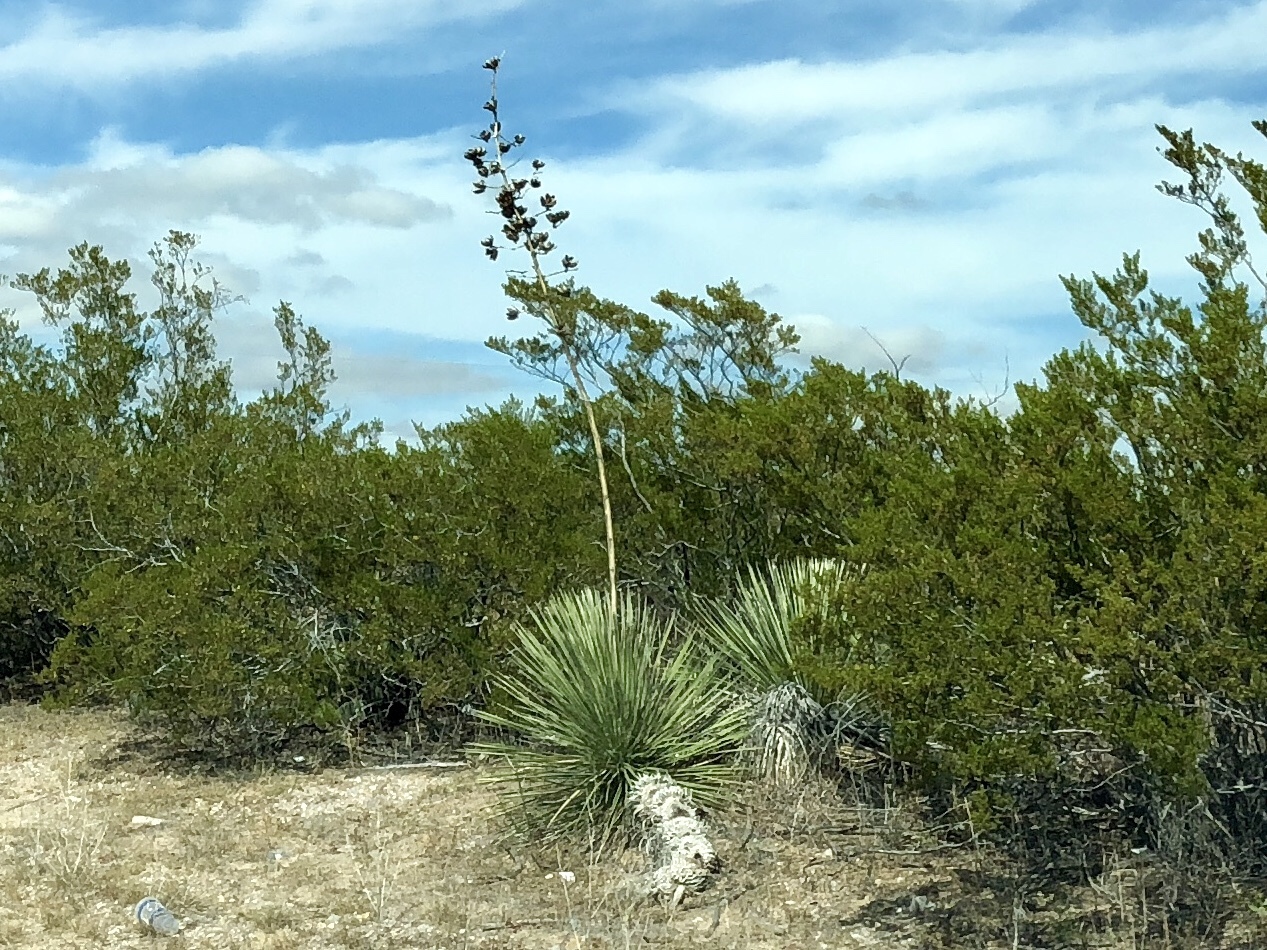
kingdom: Plantae
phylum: Tracheophyta
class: Liliopsida
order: Asparagales
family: Asparagaceae
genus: Yucca
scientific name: Yucca elata
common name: Palmella
